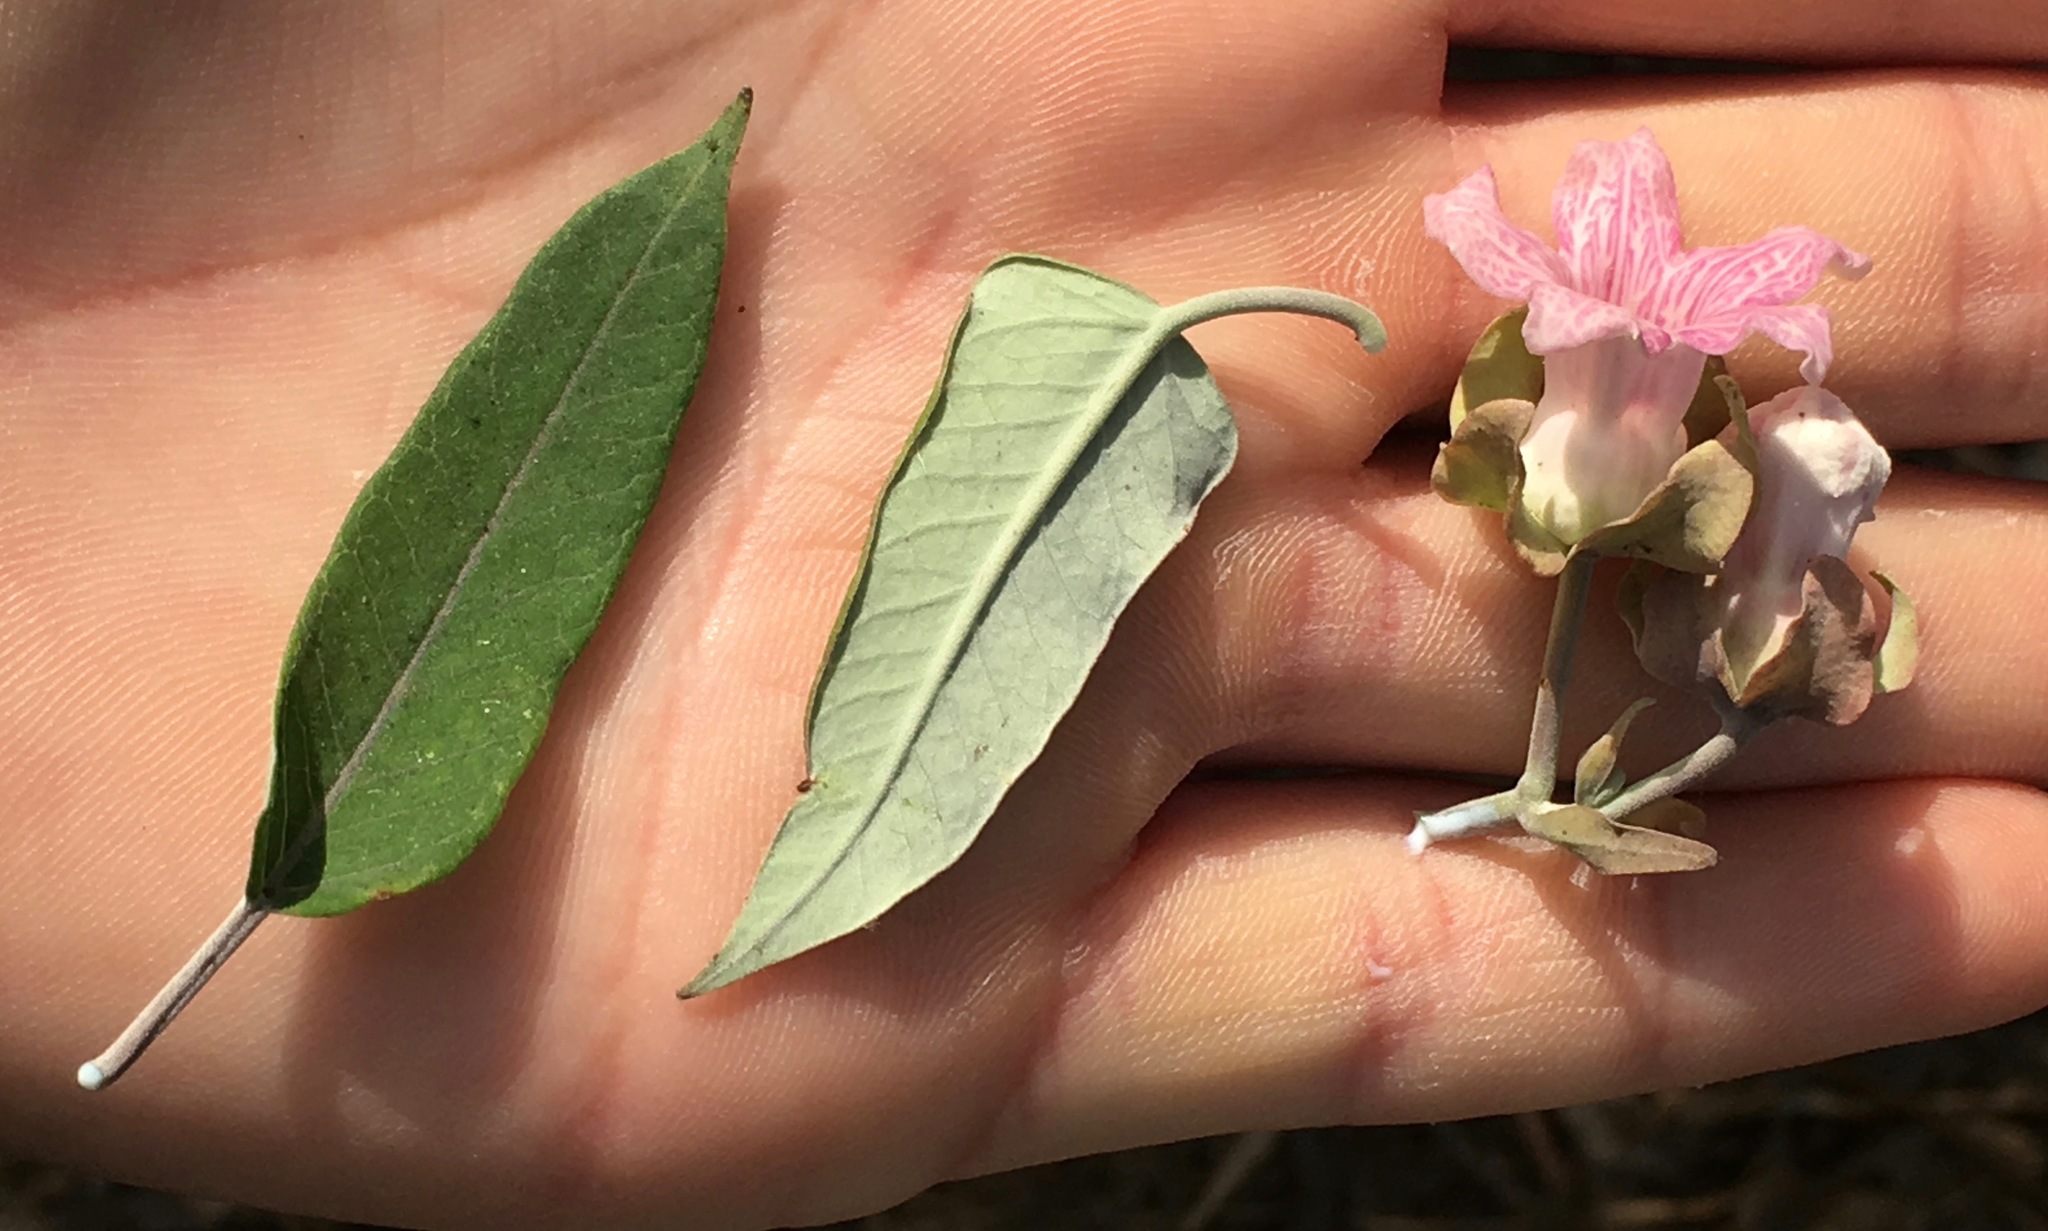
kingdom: Plantae
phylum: Tracheophyta
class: Magnoliopsida
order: Gentianales
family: Apocynaceae
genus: Araujia
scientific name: Araujia sericifera
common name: White bladderflower
